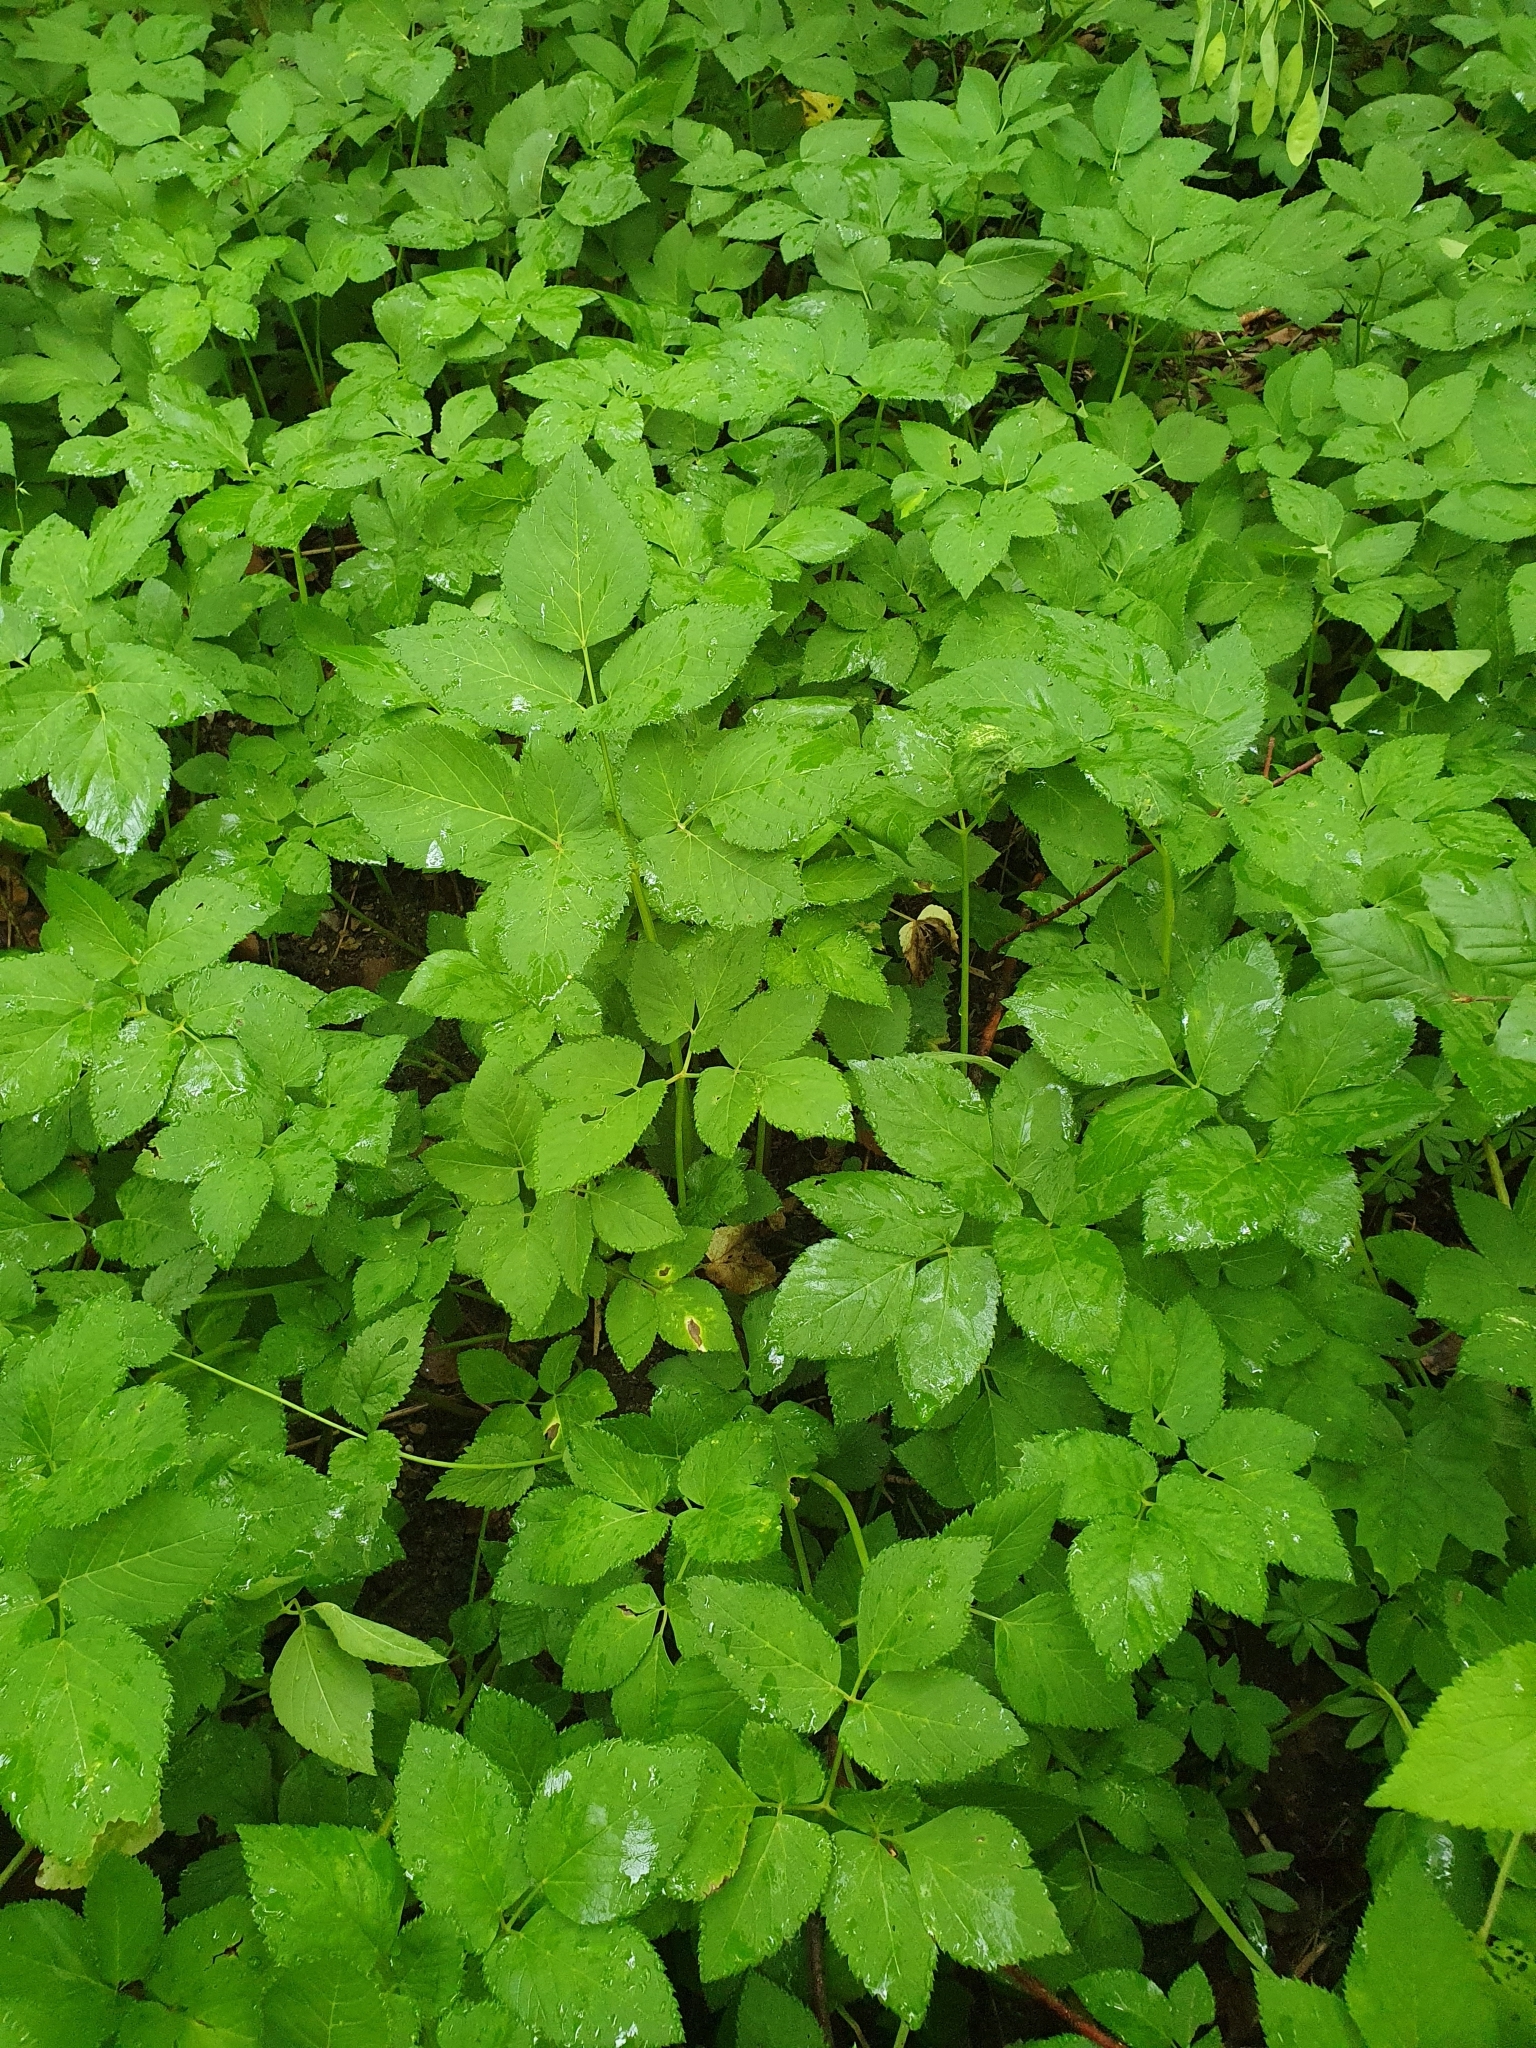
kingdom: Plantae
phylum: Tracheophyta
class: Magnoliopsida
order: Apiales
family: Apiaceae
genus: Aegopodium
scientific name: Aegopodium podagraria
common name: Ground-elder
